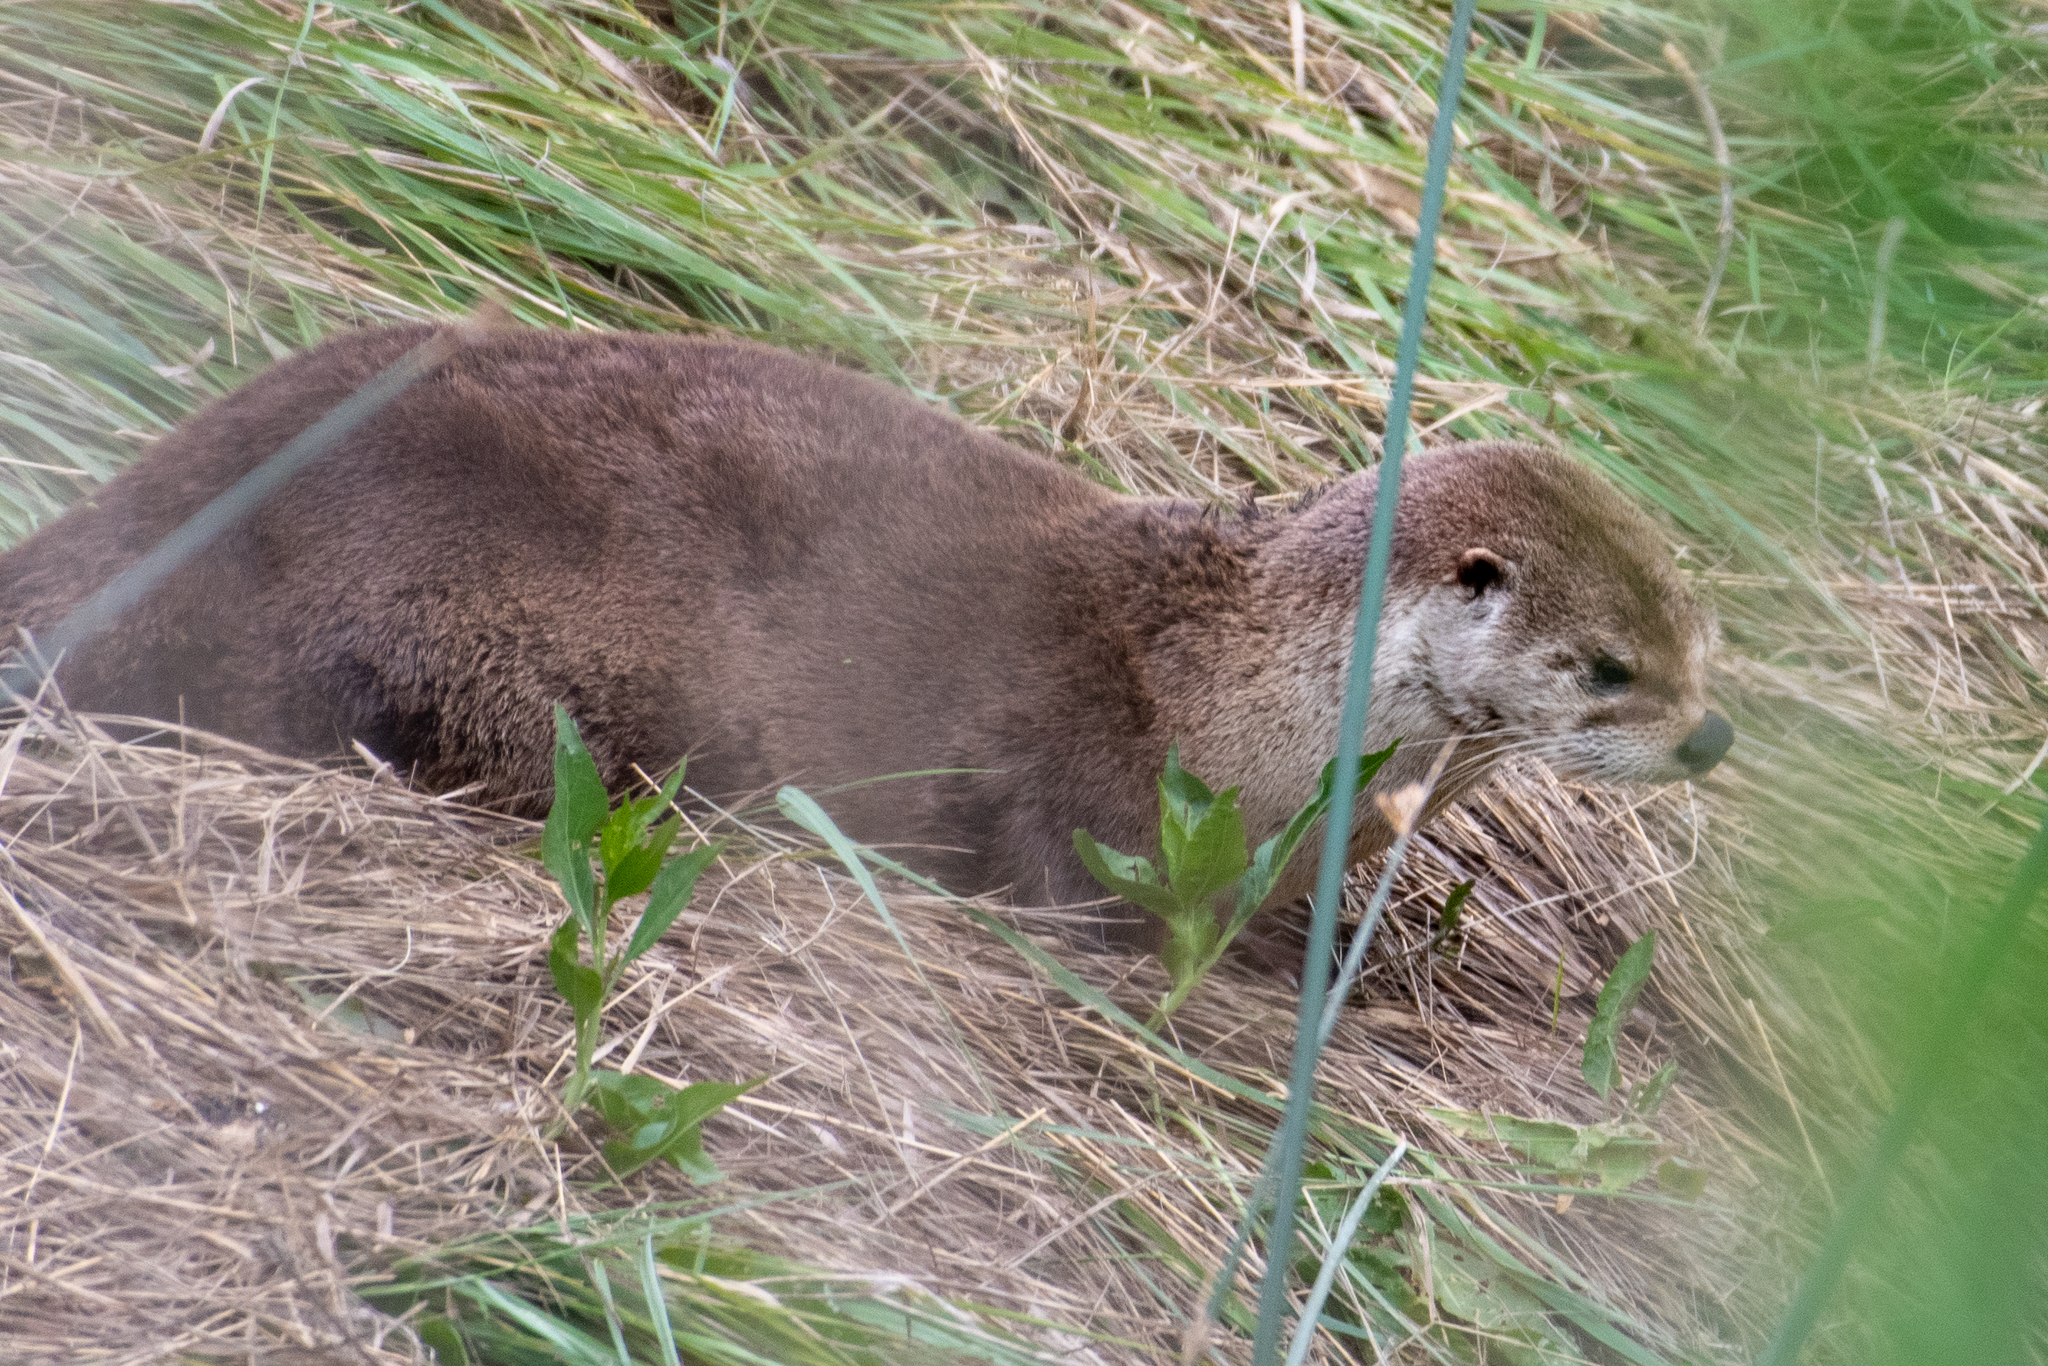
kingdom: Animalia
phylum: Chordata
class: Mammalia
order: Carnivora
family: Mustelidae
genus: Lontra
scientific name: Lontra canadensis
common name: North american river otter
